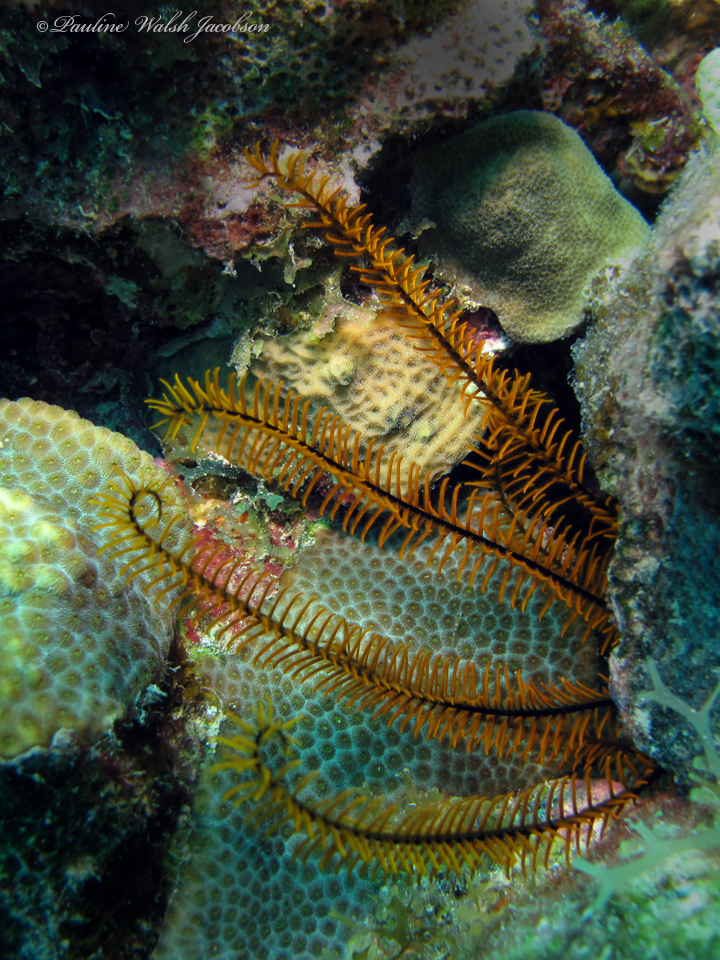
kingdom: Animalia
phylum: Echinodermata
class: Crinoidea
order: Comatulida
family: Comatulidae
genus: Davidaster
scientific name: Davidaster rubiginosus
